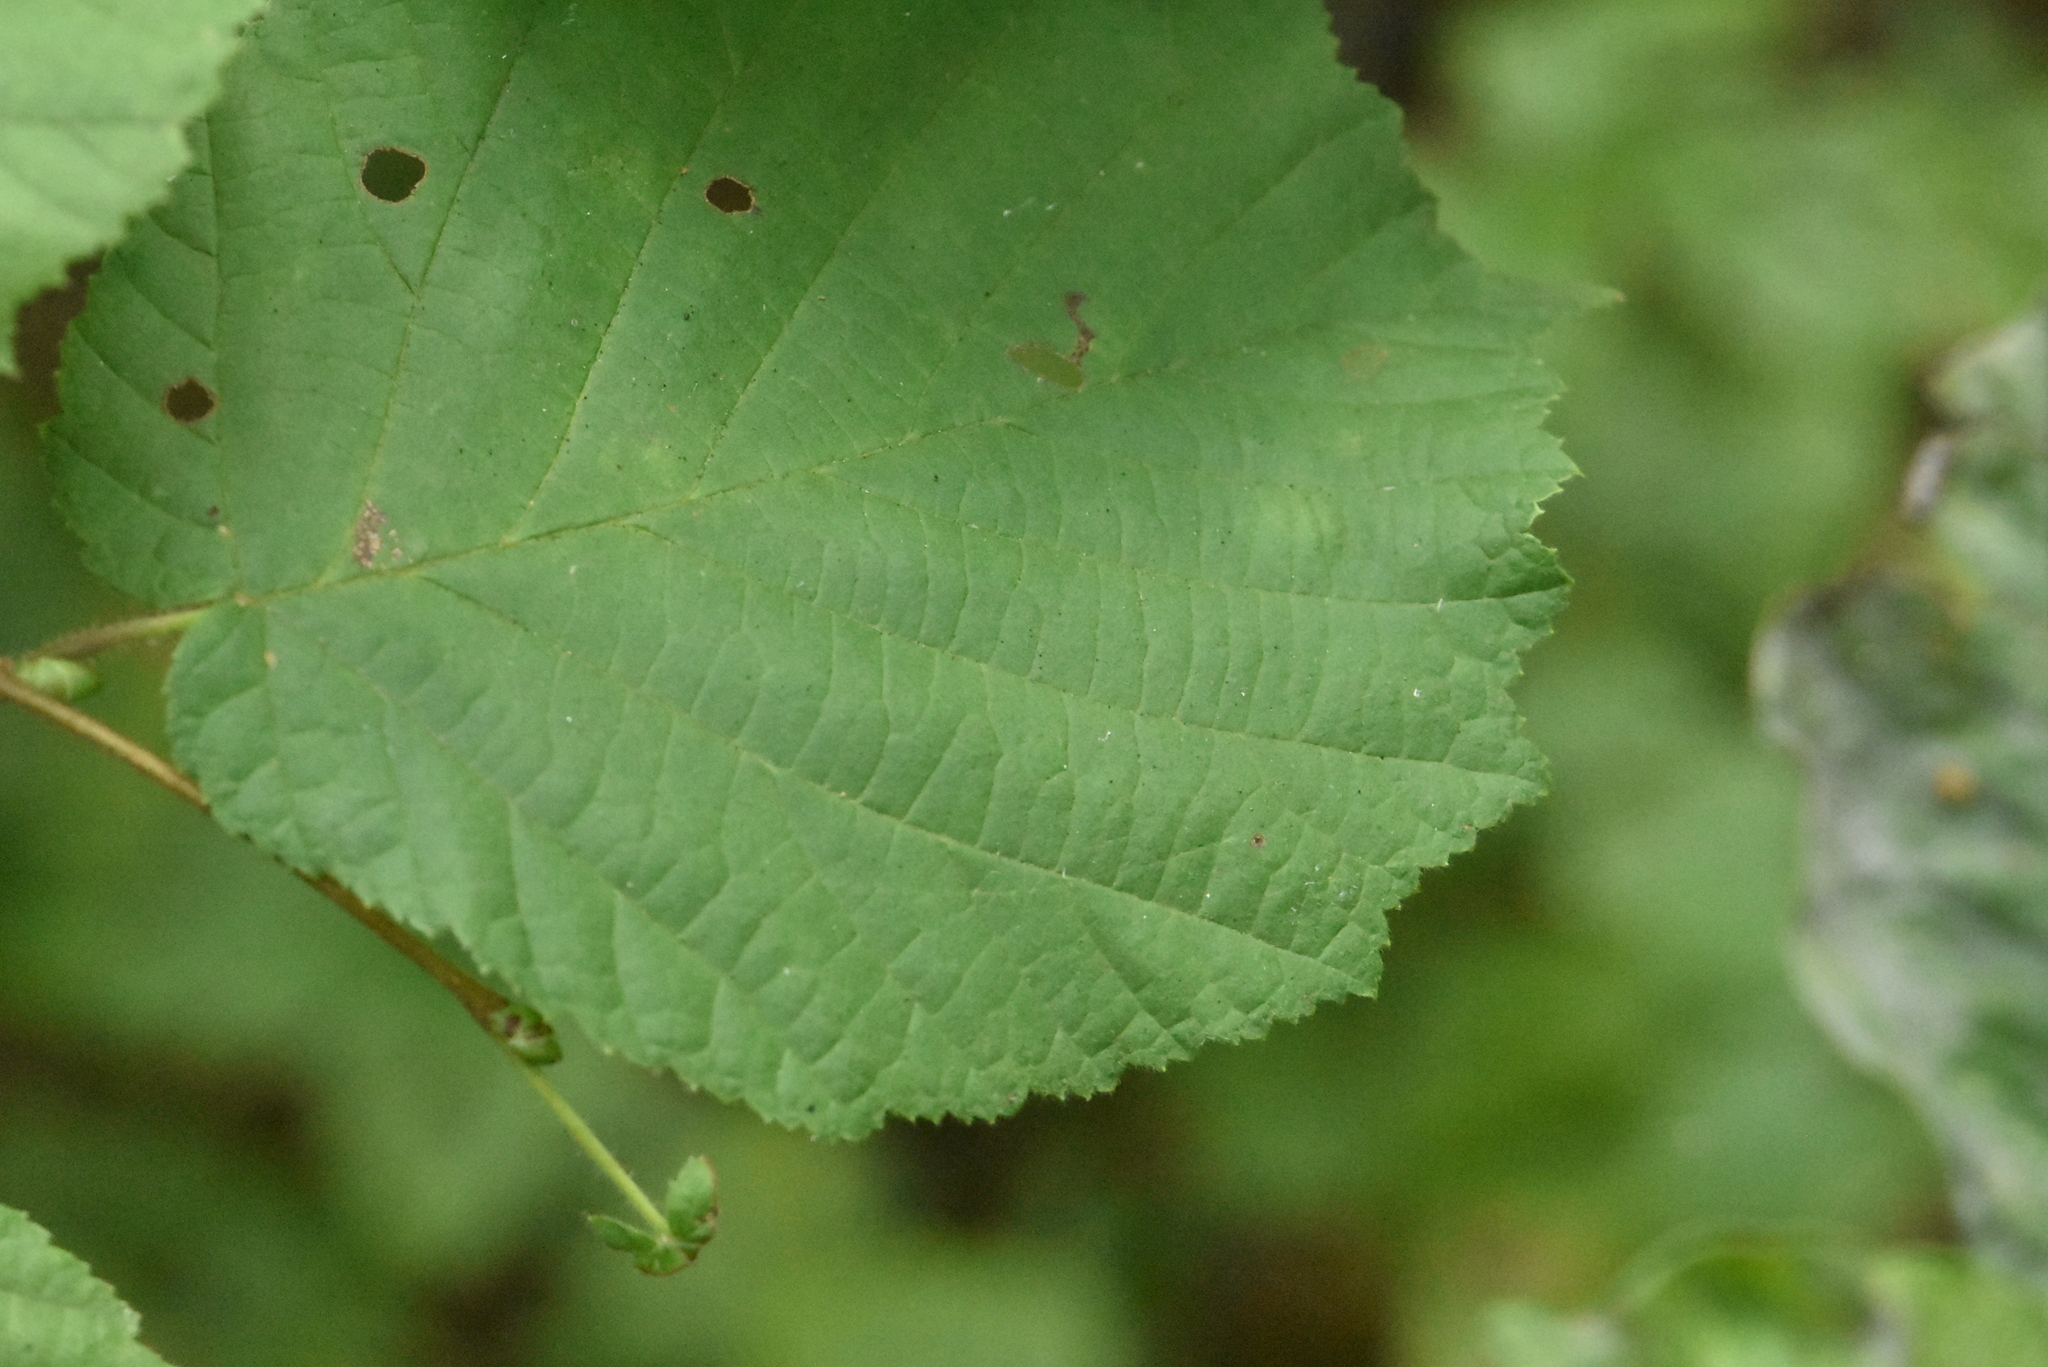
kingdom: Plantae
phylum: Tracheophyta
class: Magnoliopsida
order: Fagales
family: Betulaceae
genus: Corylus
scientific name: Corylus avellana
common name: European hazel
